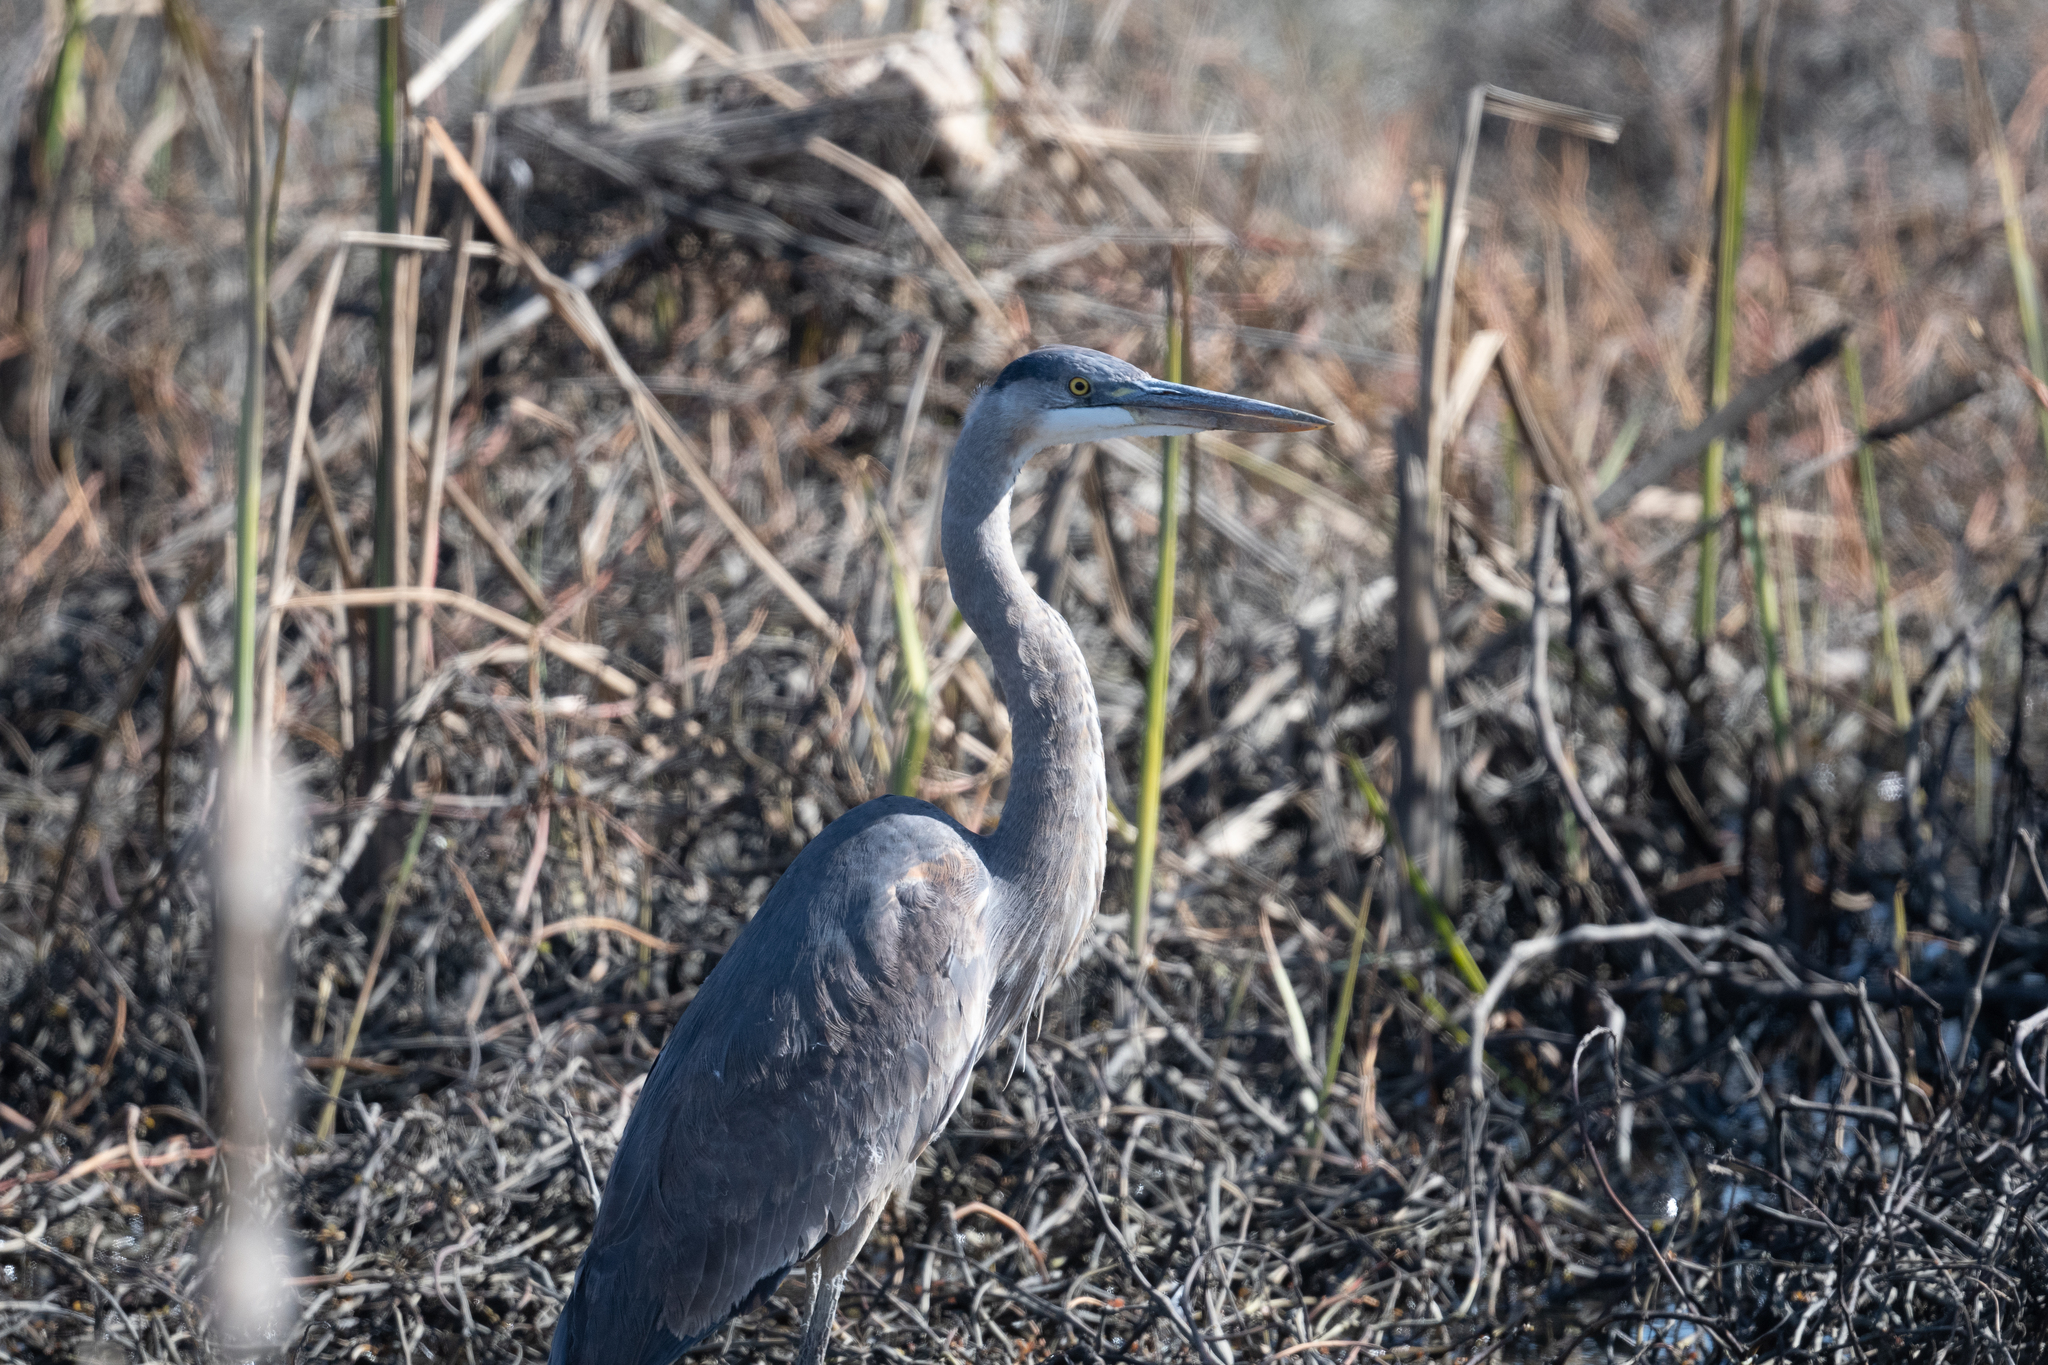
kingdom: Animalia
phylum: Chordata
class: Aves
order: Pelecaniformes
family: Ardeidae
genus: Ardea
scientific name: Ardea herodias
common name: Great blue heron
